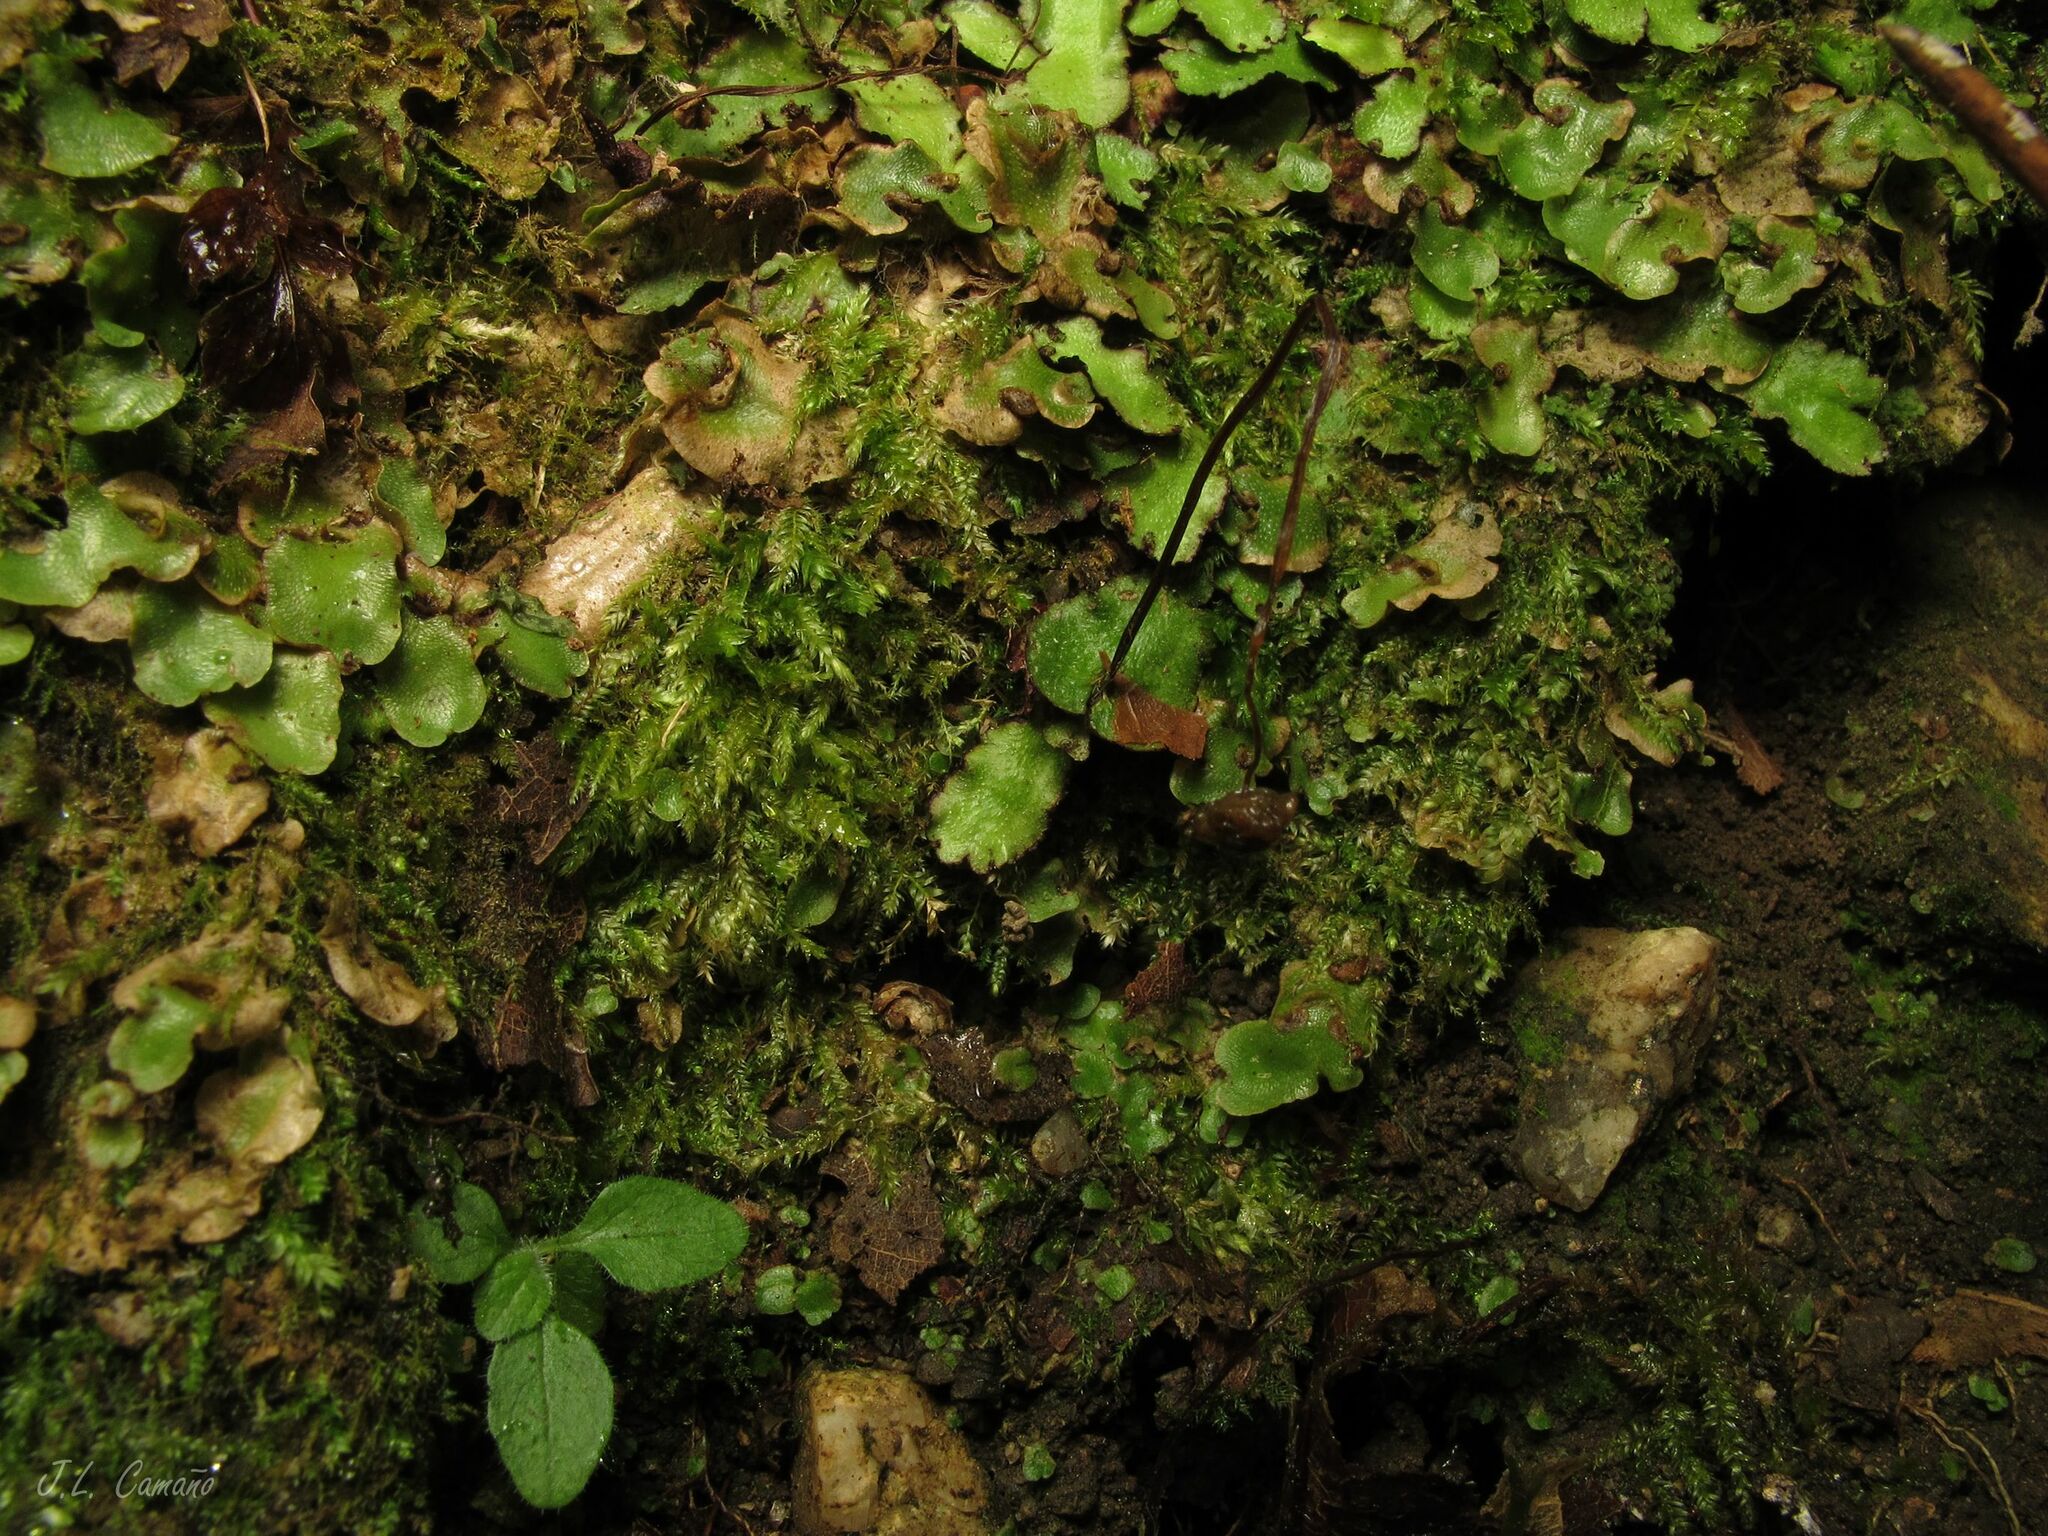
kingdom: Plantae
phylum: Marchantiophyta
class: Marchantiopsida
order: Marchantiales
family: Aytoniaceae
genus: Reboulia
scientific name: Reboulia hemisphaerica
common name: Purple-margined liverwort
